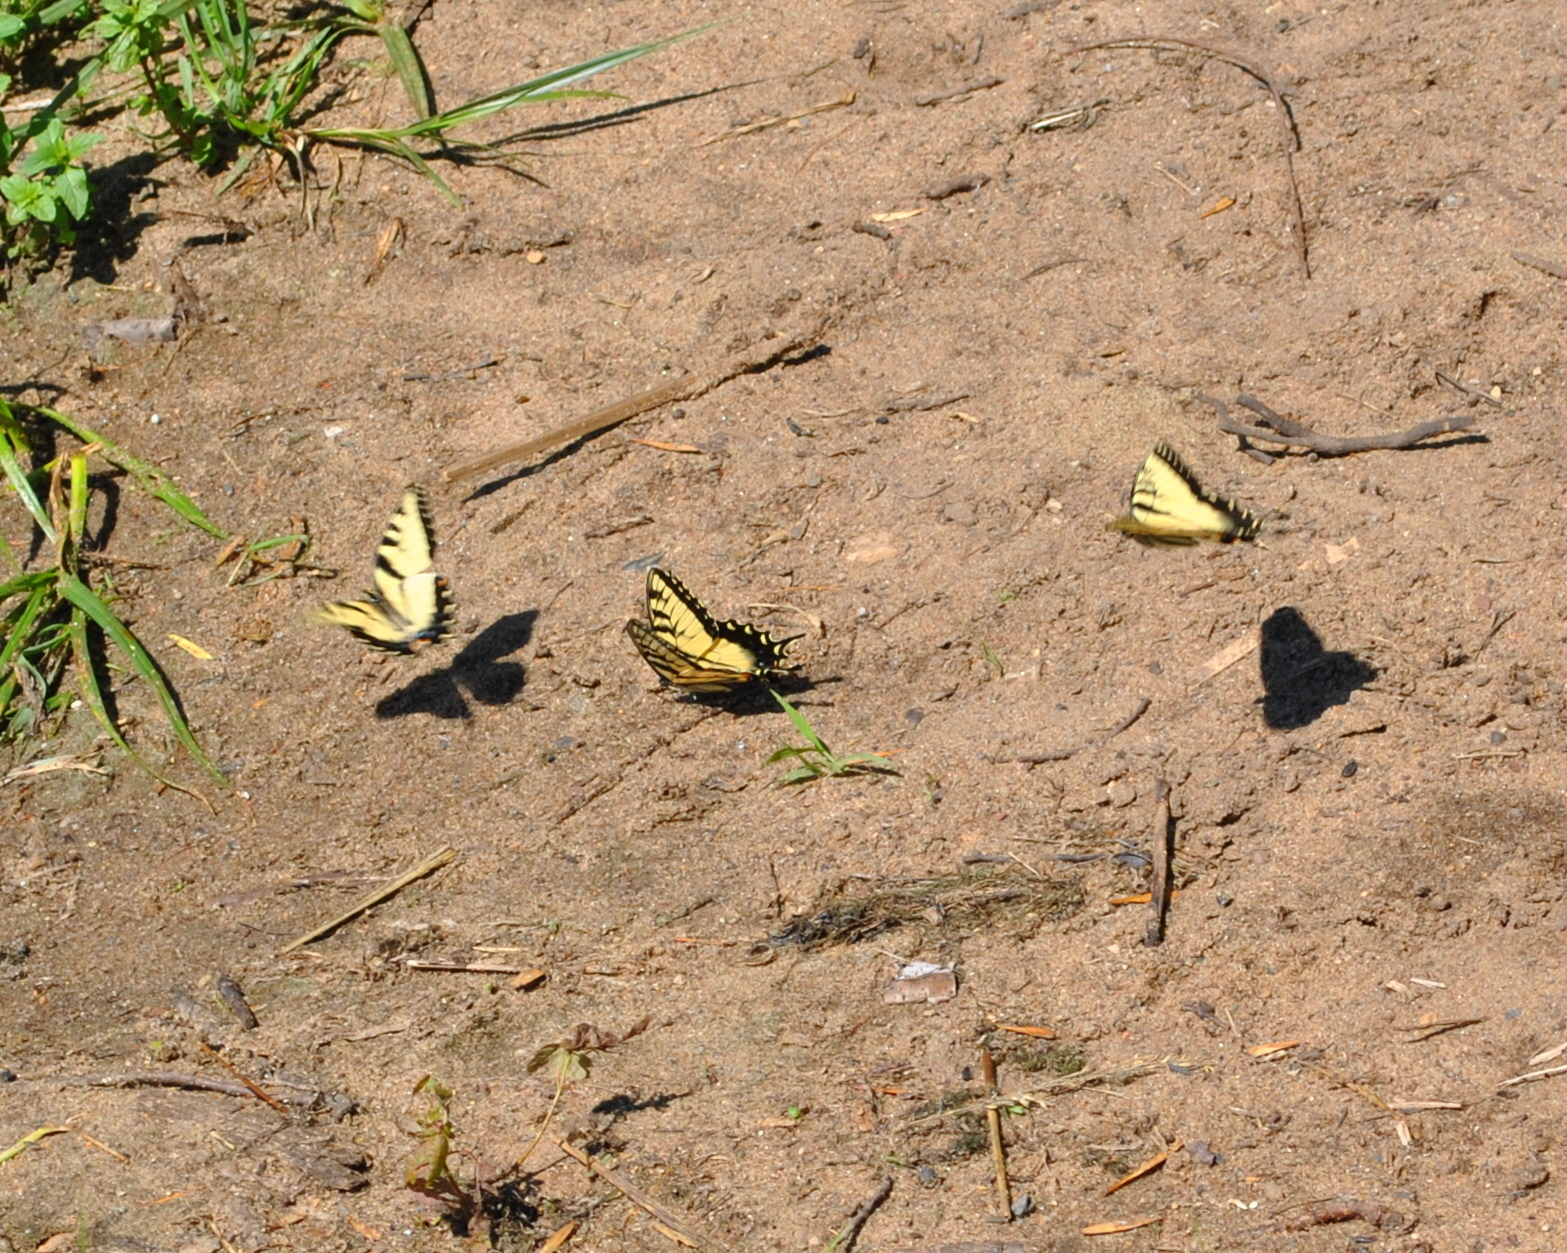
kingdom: Animalia
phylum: Arthropoda
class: Insecta
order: Lepidoptera
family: Papilionidae
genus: Papilio
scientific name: Papilio glaucus
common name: Tiger swallowtail
